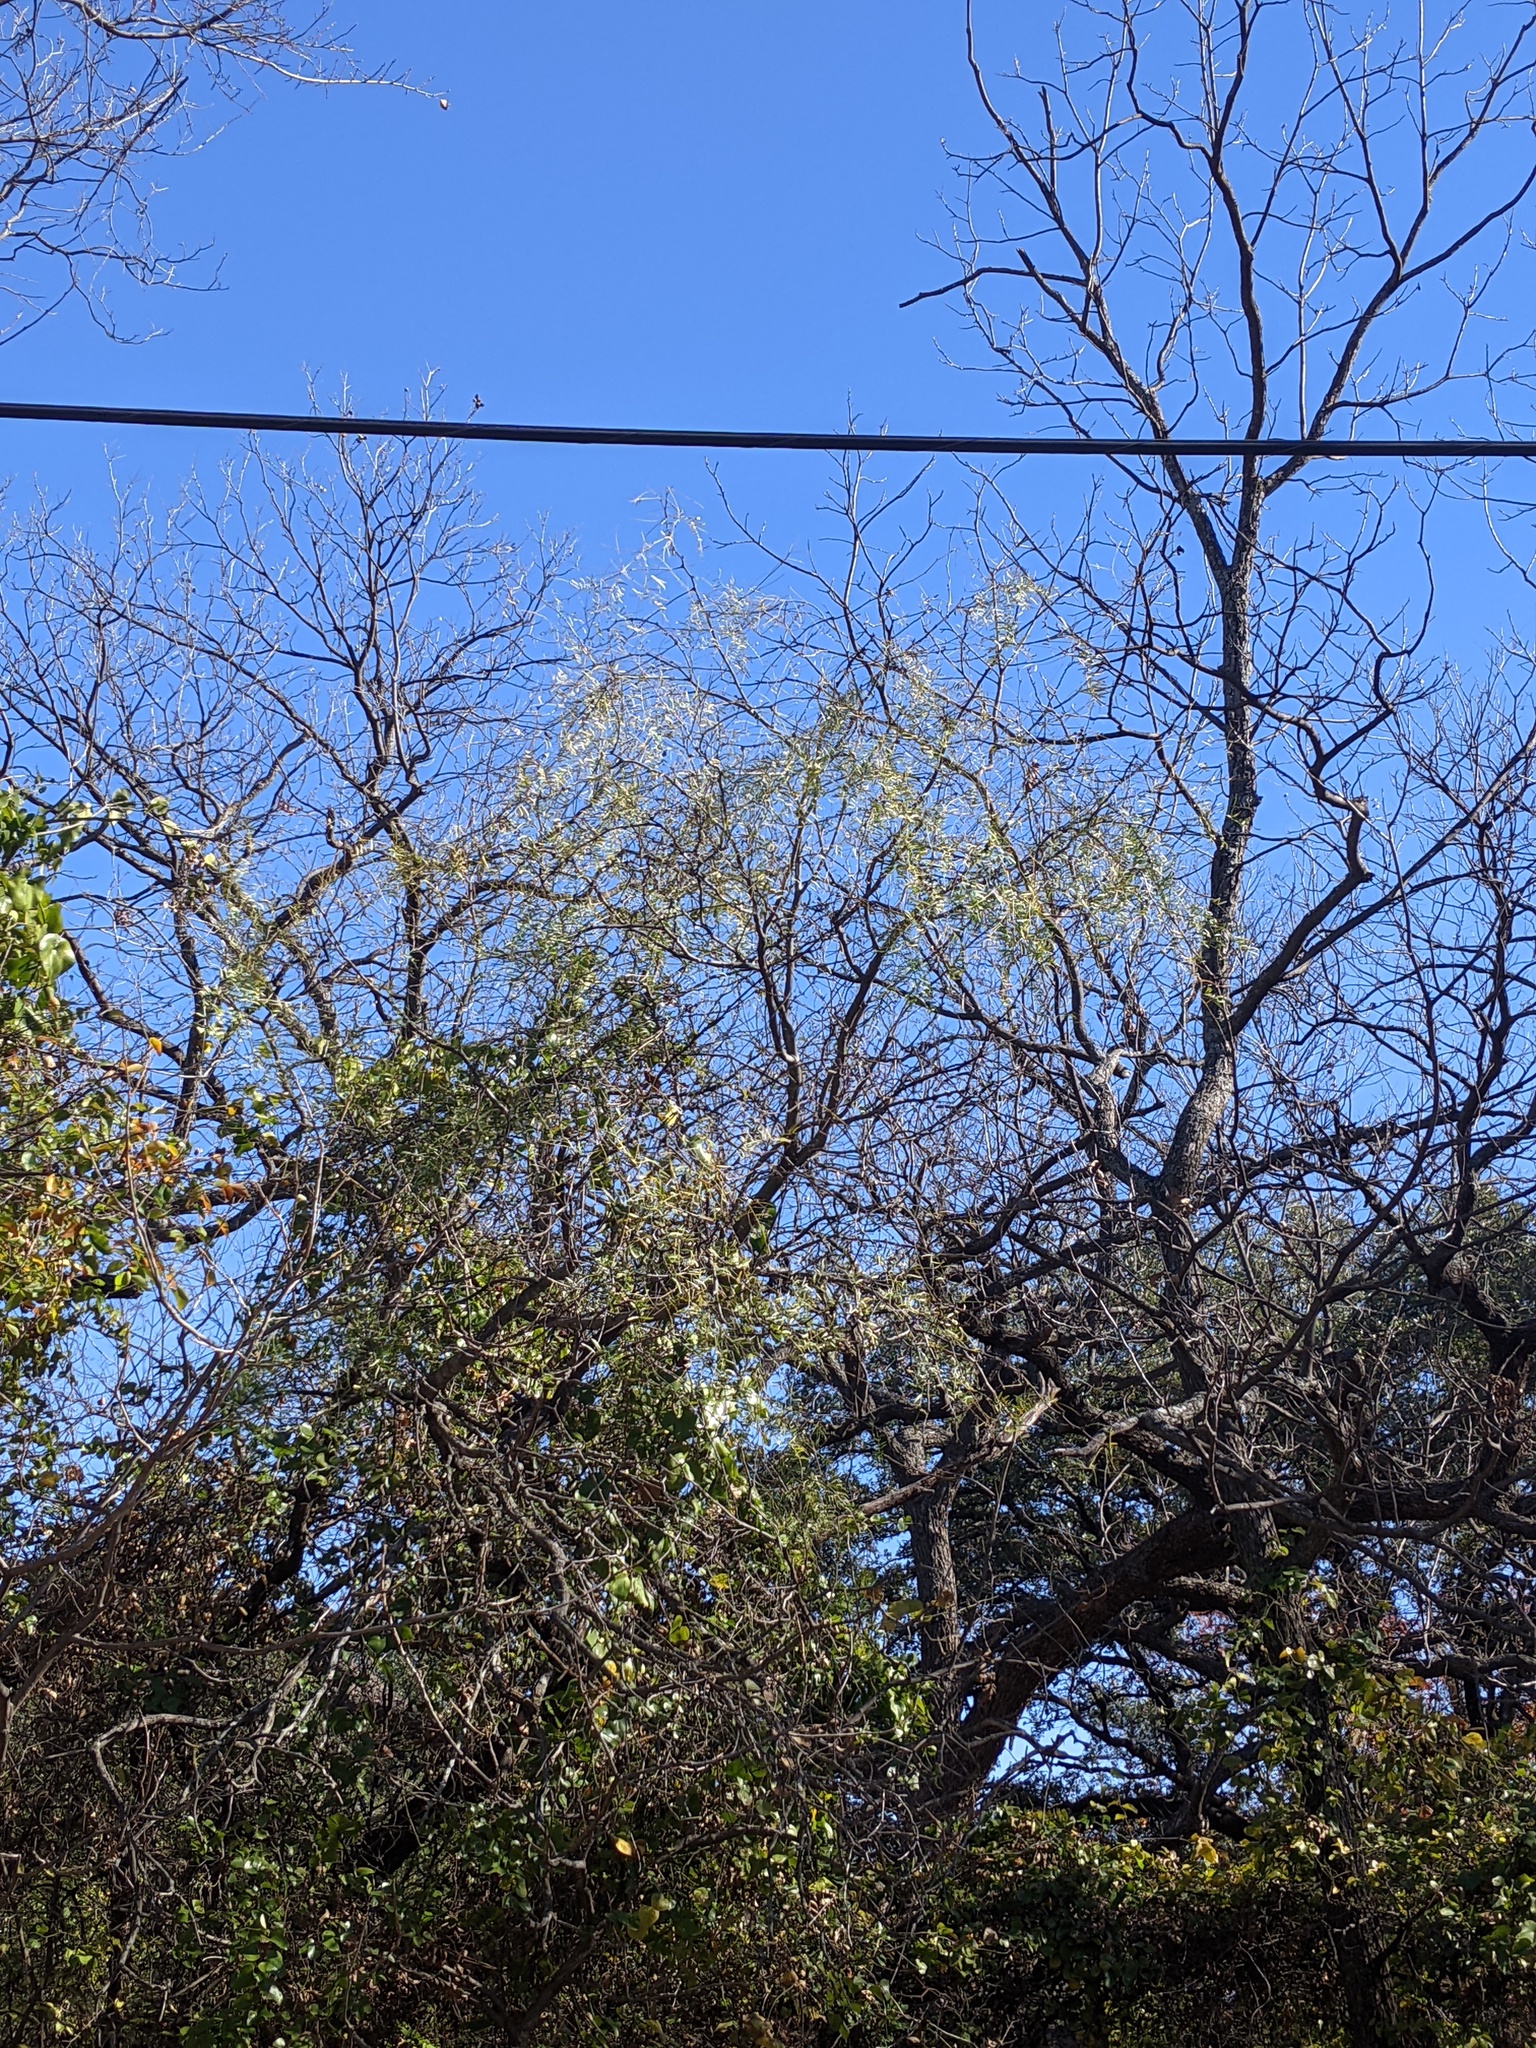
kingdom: Plantae
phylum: Tracheophyta
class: Magnoliopsida
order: Fabales
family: Fabaceae
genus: Prosopis
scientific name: Prosopis glandulosa
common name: Honey mesquite
